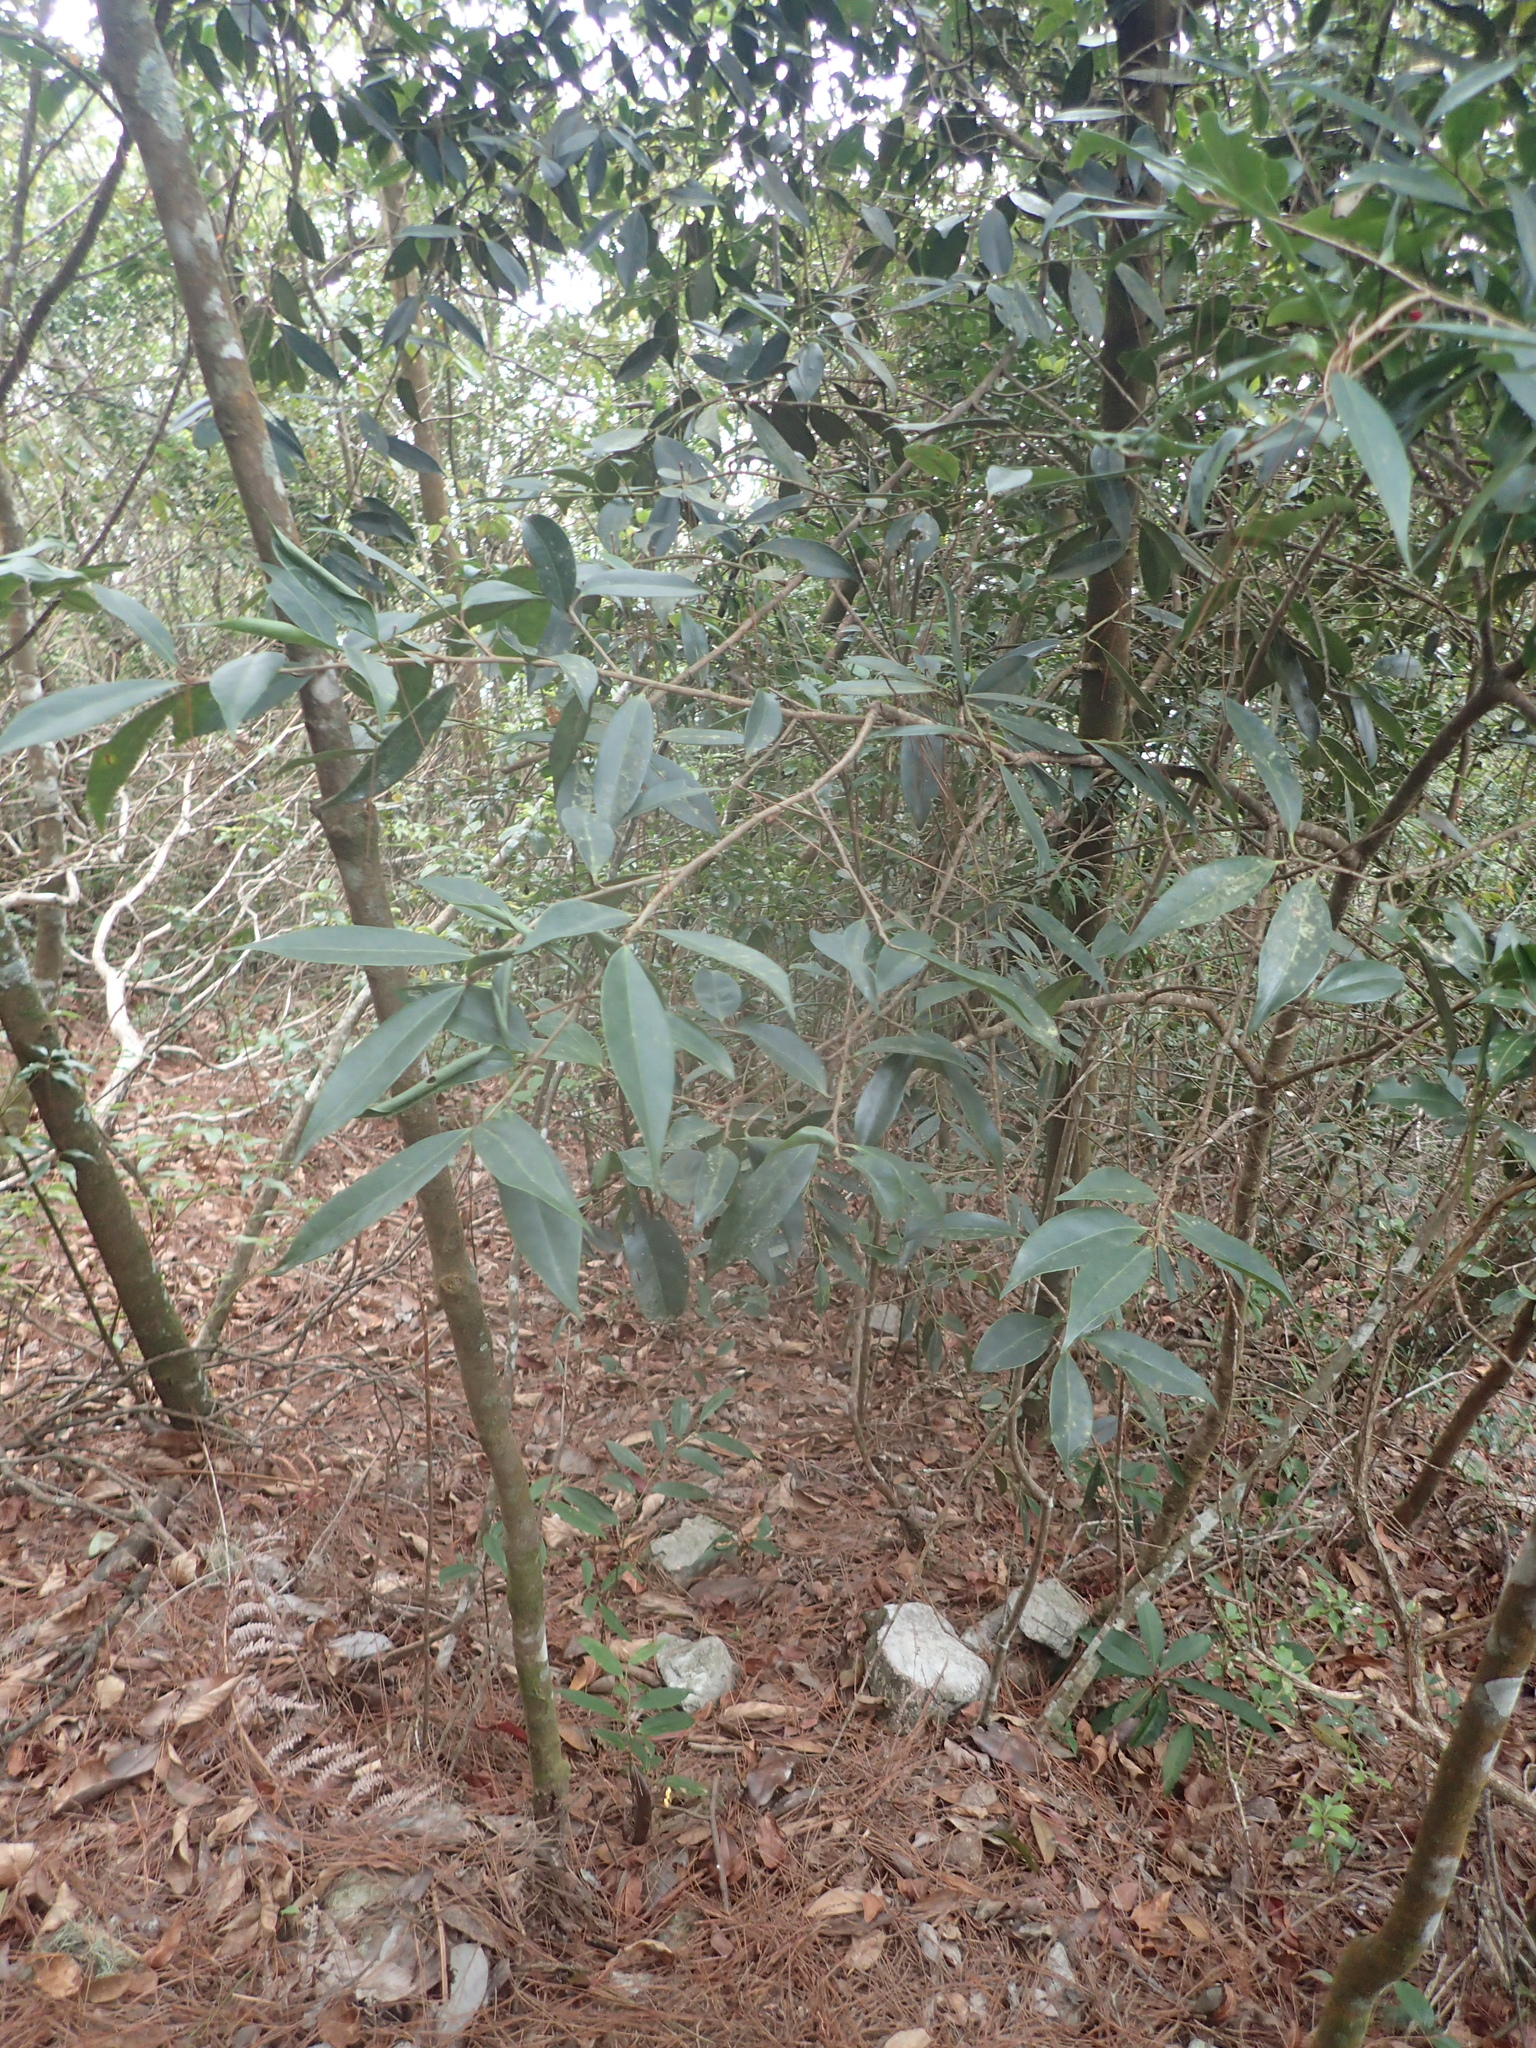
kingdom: Plantae
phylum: Tracheophyta
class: Magnoliopsida
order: Ericales
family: Symplocaceae
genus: Symplocos
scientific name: Symplocos sonoharae
